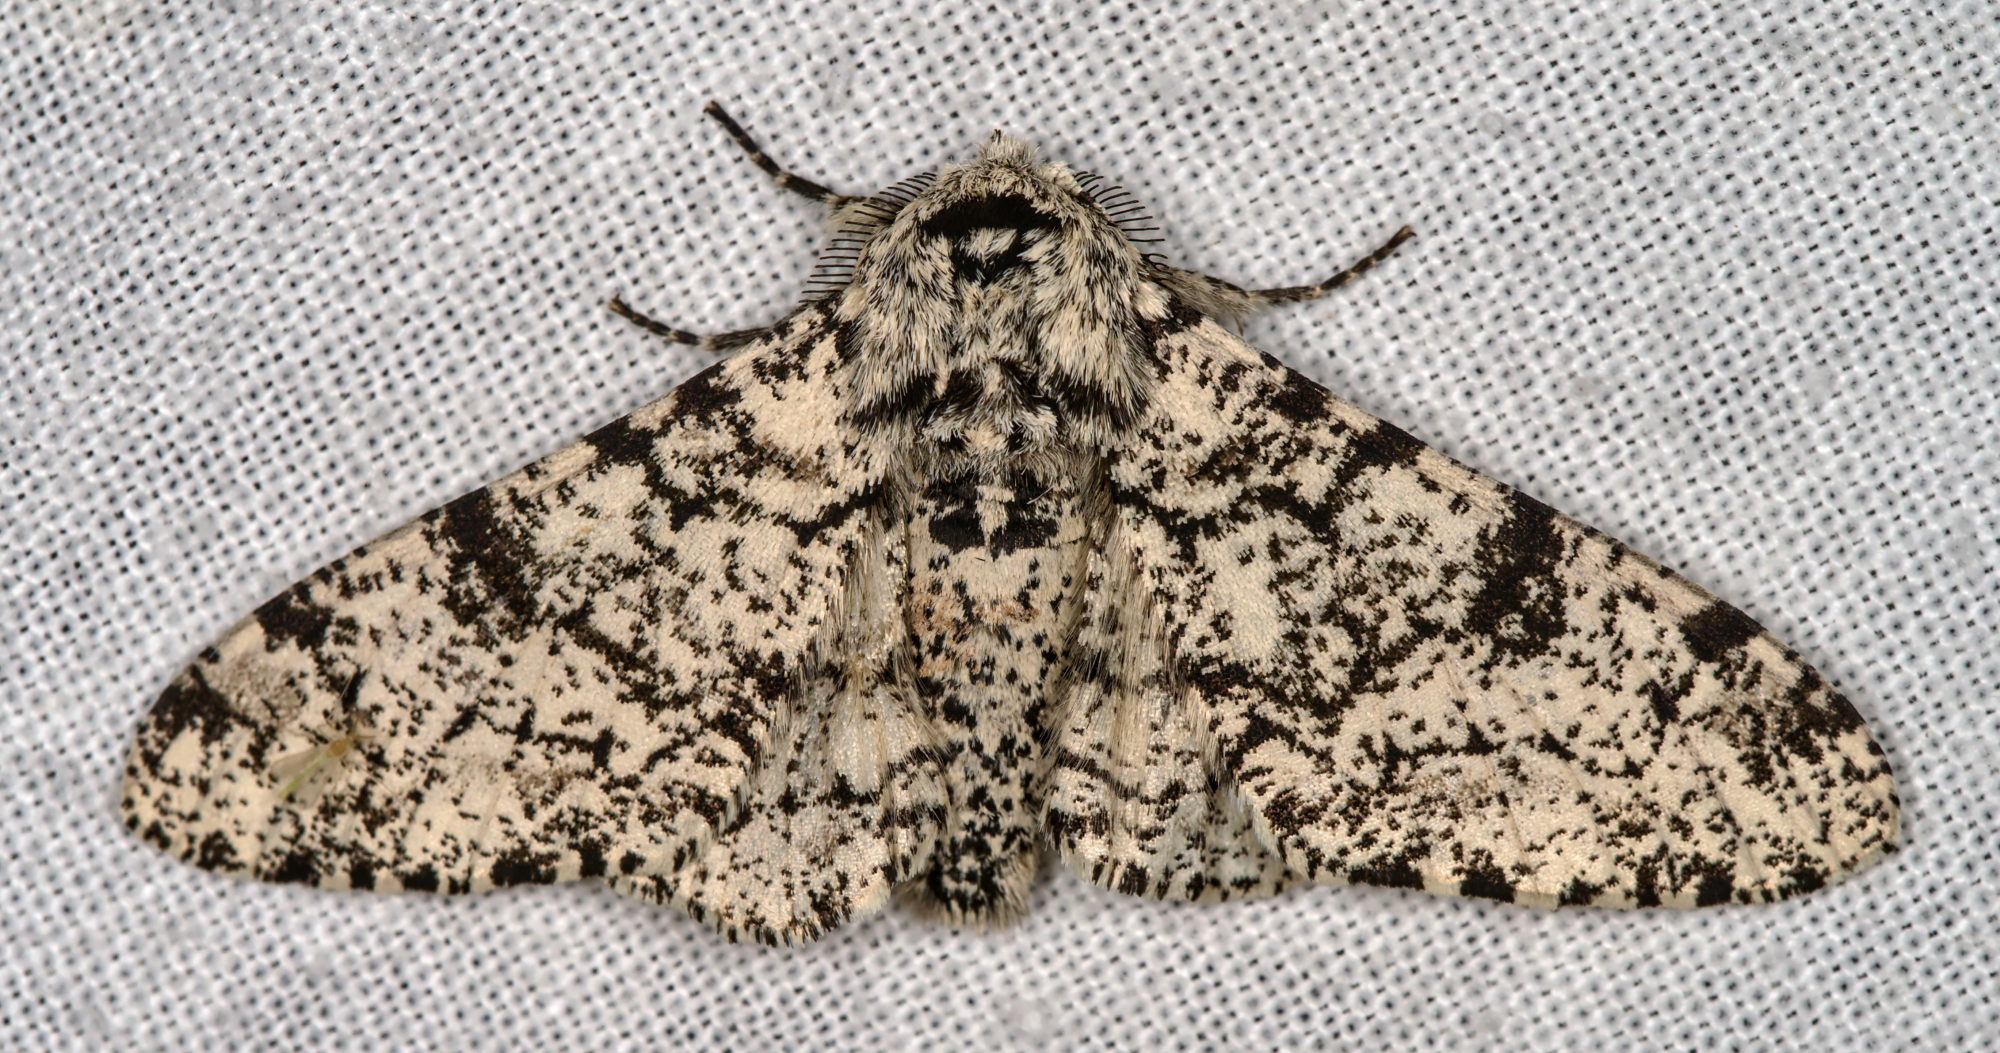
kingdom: Animalia
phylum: Arthropoda
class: Insecta
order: Lepidoptera
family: Geometridae
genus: Biston
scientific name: Biston betularia
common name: Peppered moth
